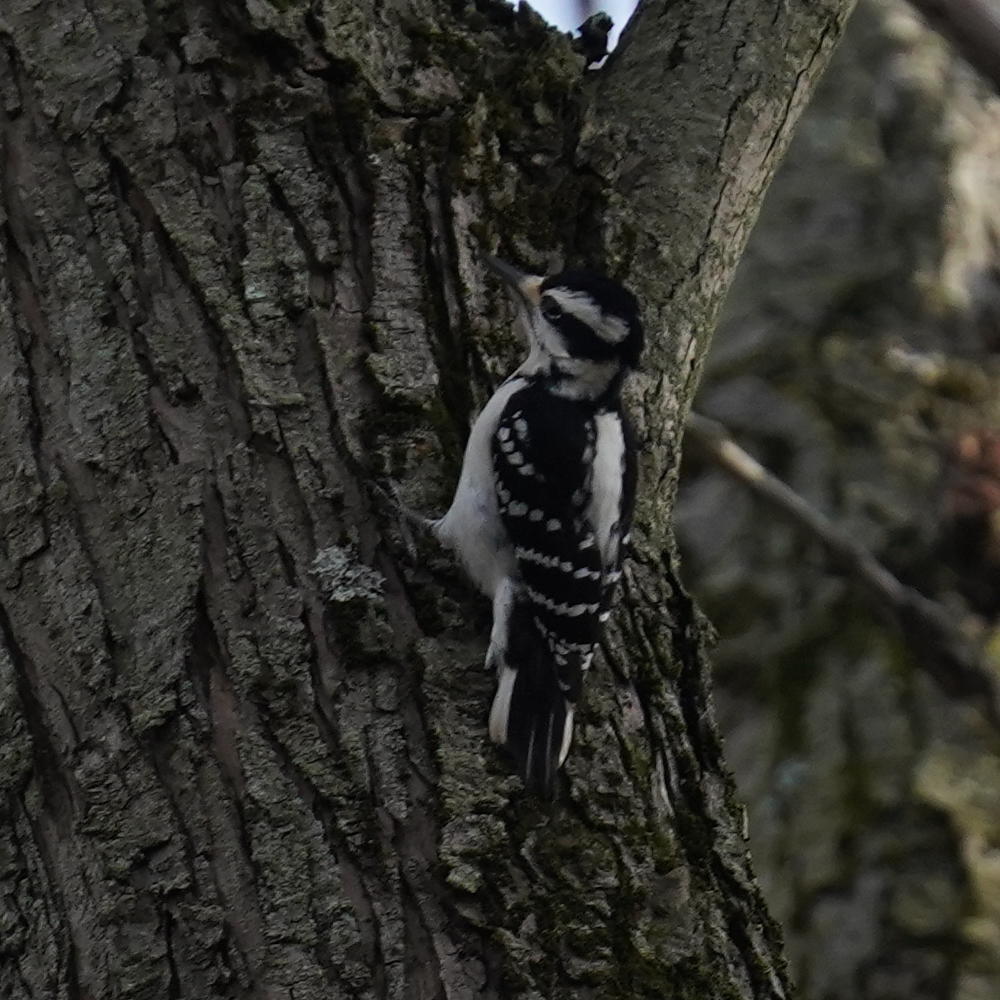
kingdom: Animalia
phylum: Chordata
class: Aves
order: Piciformes
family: Picidae
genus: Leuconotopicus
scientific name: Leuconotopicus villosus
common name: Hairy woodpecker
